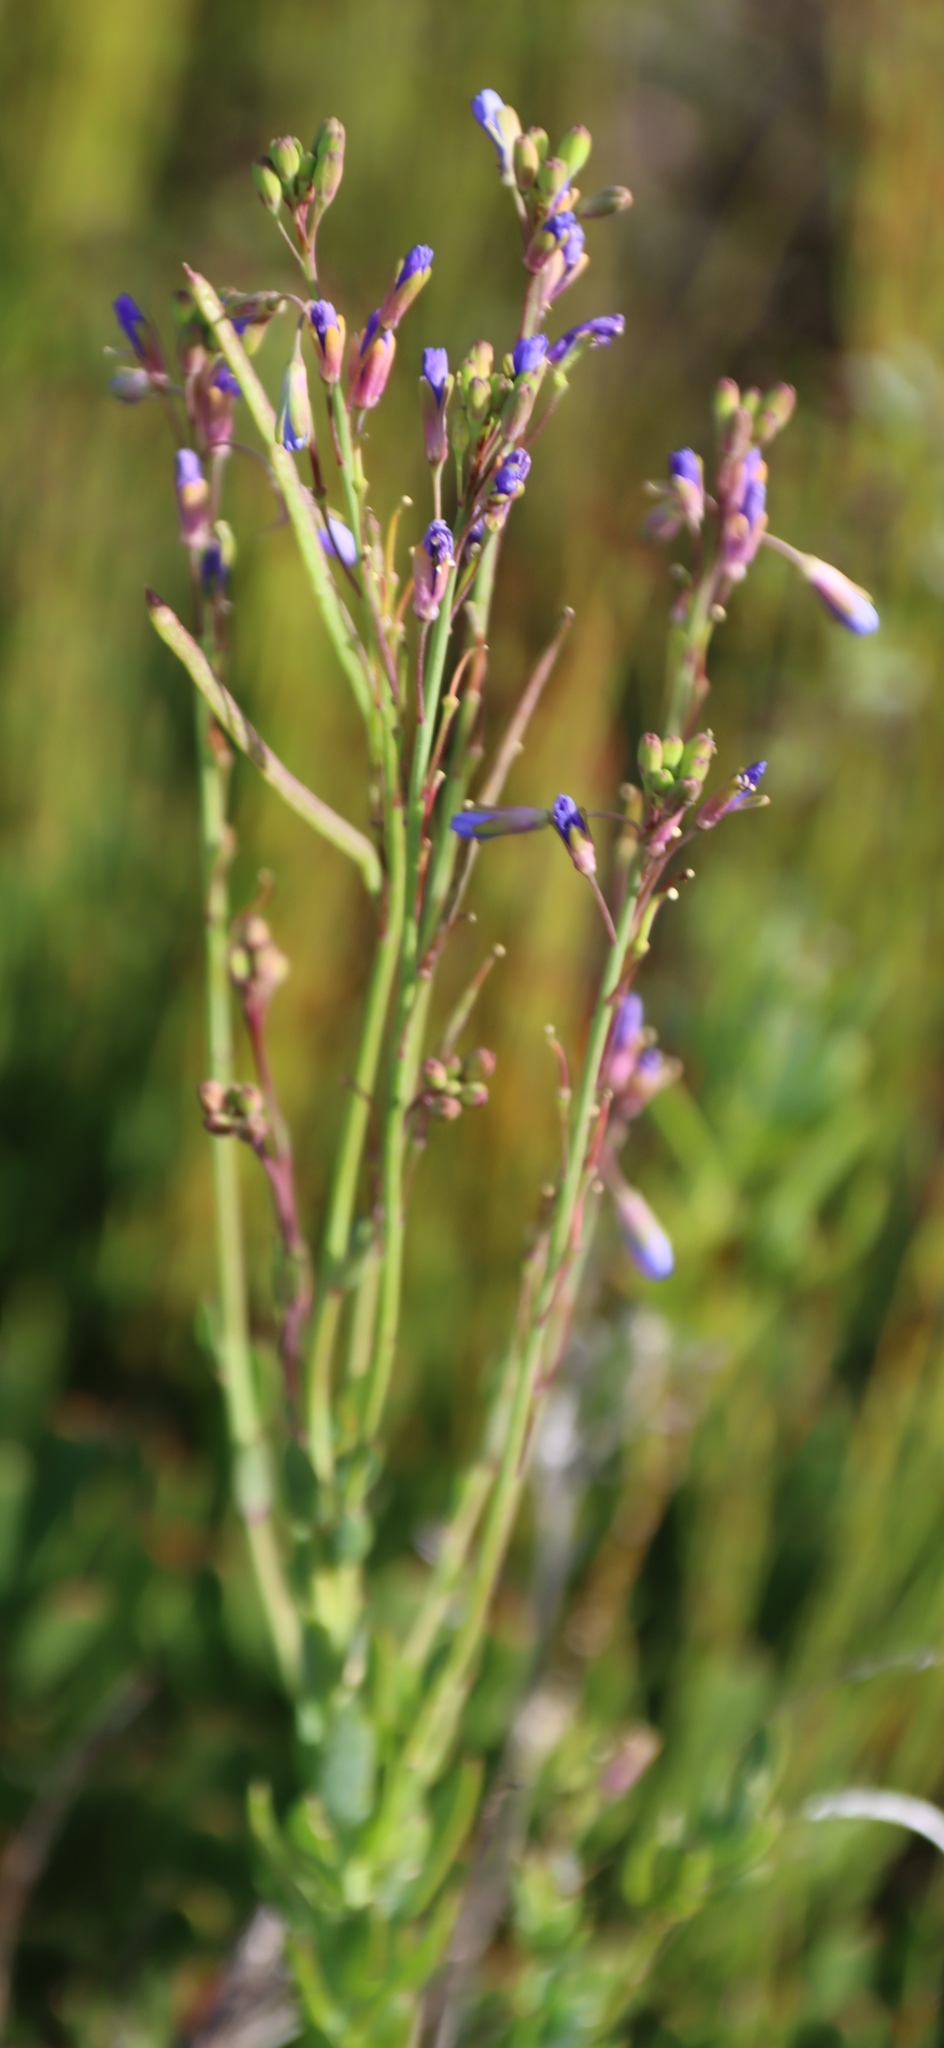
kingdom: Plantae
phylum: Tracheophyta
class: Magnoliopsida
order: Brassicales
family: Brassicaceae
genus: Heliophila
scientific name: Heliophila linearis
